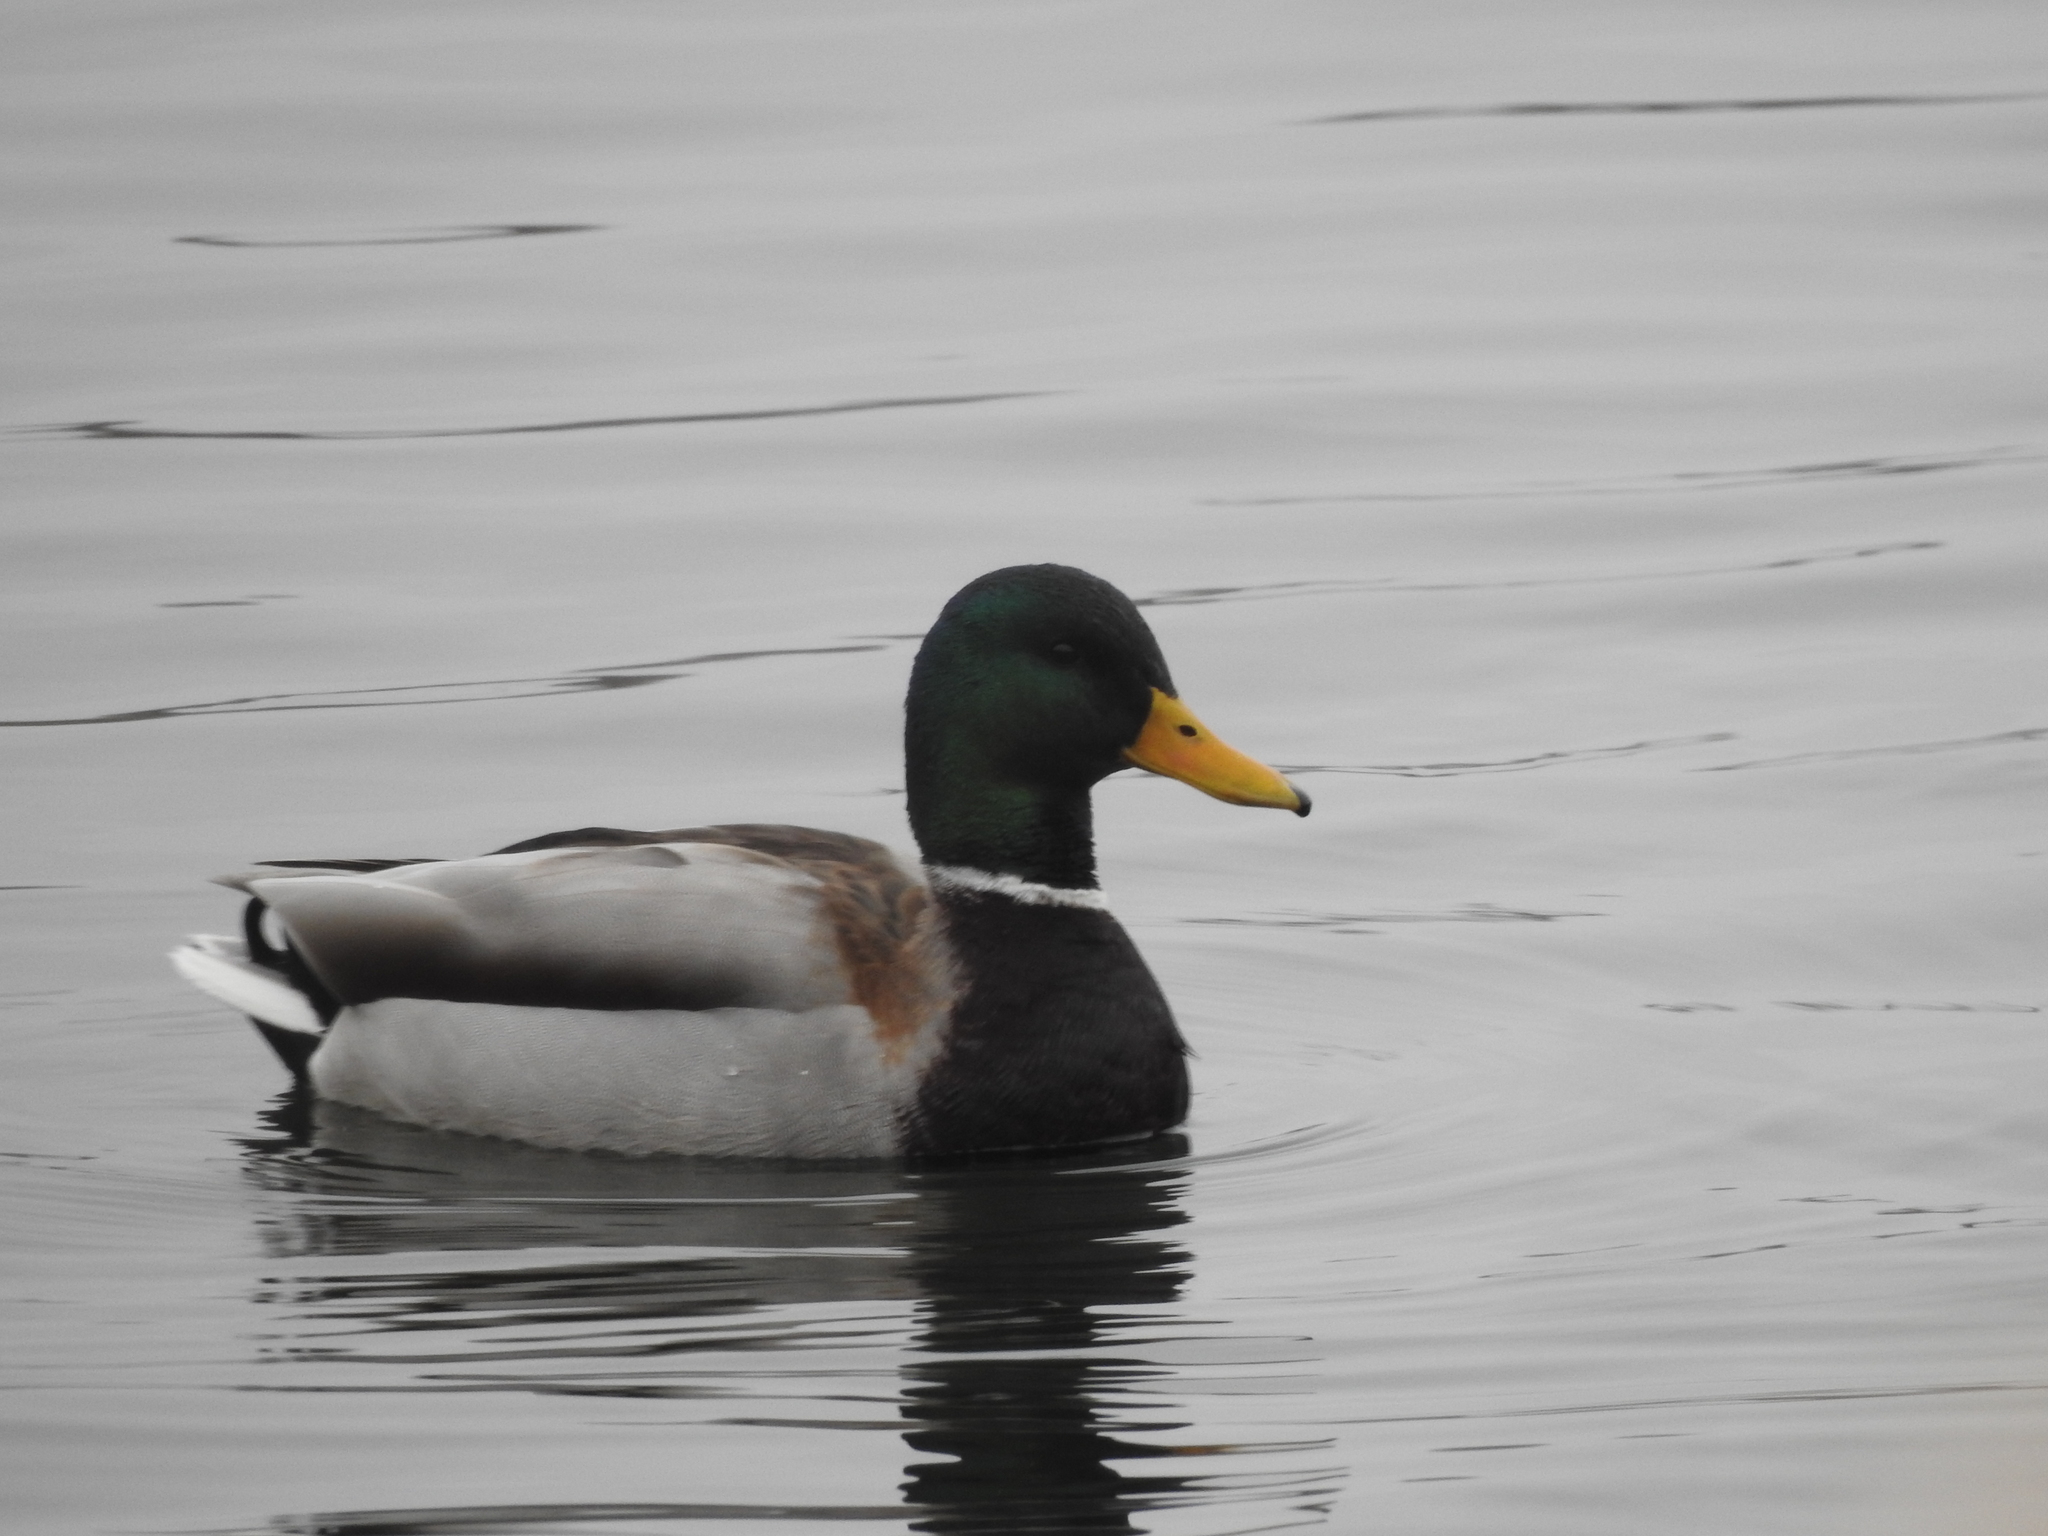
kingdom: Animalia
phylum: Chordata
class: Aves
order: Anseriformes
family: Anatidae
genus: Anas
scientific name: Anas platyrhynchos
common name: Mallard
